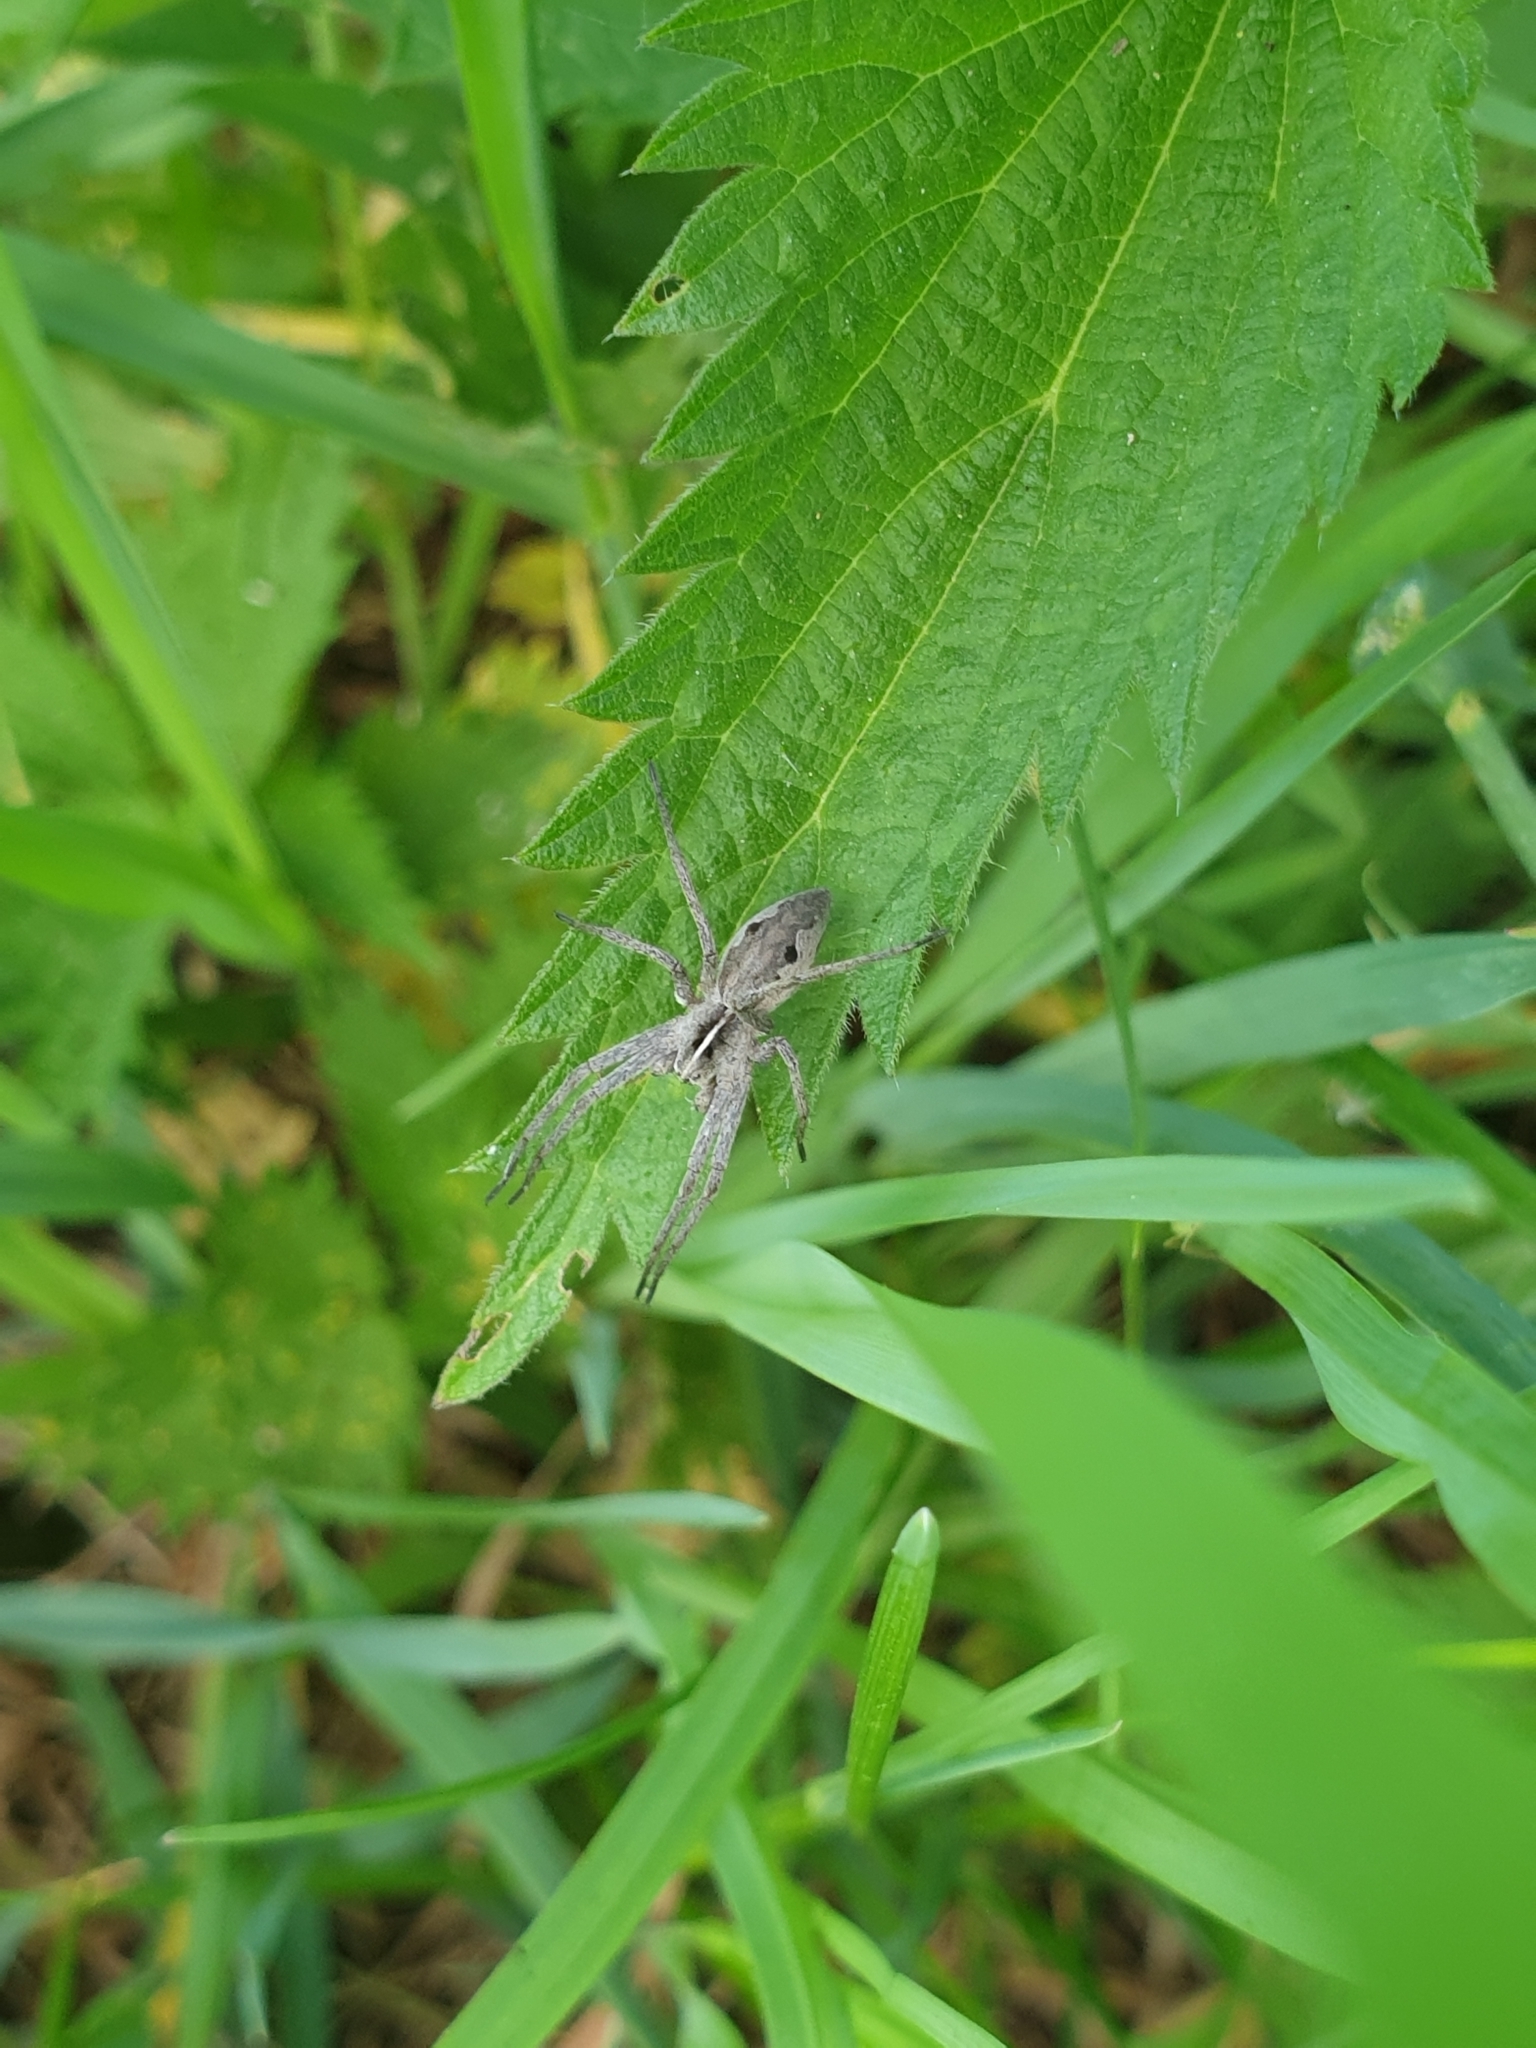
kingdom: Animalia
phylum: Arthropoda
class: Arachnida
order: Araneae
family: Pisauridae
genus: Pisaura
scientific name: Pisaura mirabilis
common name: Tent spider
